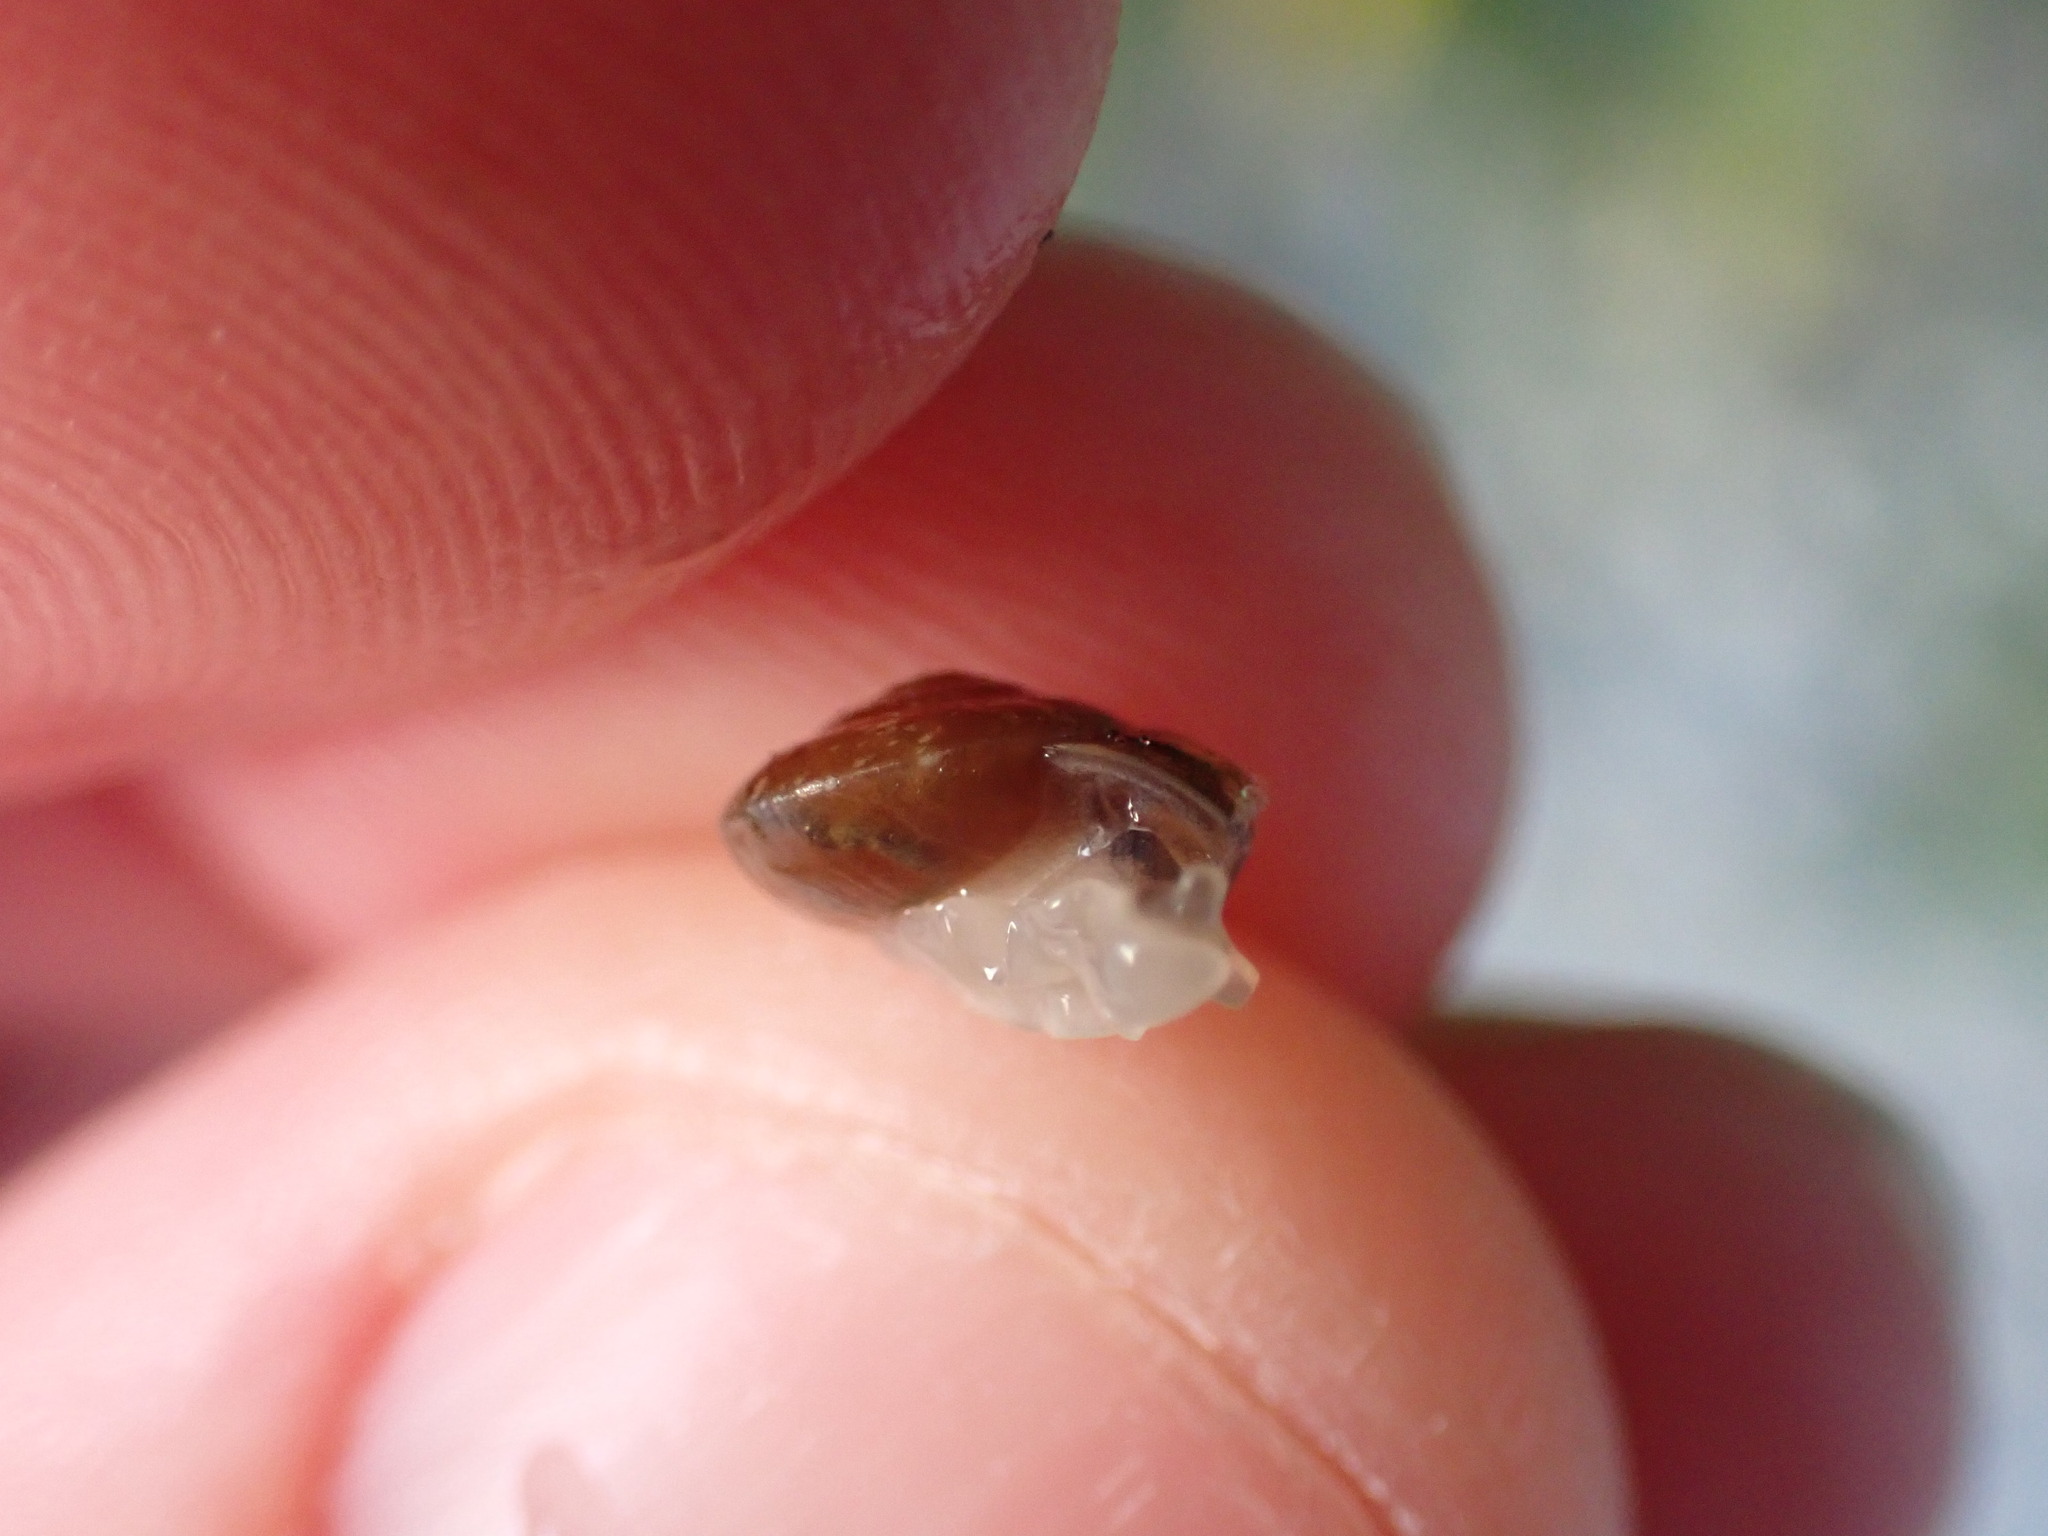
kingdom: Animalia
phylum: Mollusca
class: Gastropoda
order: Stylommatophora
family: Hygromiidae
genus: Hygromia
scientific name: Hygromia cinctella
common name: Girdled snail
